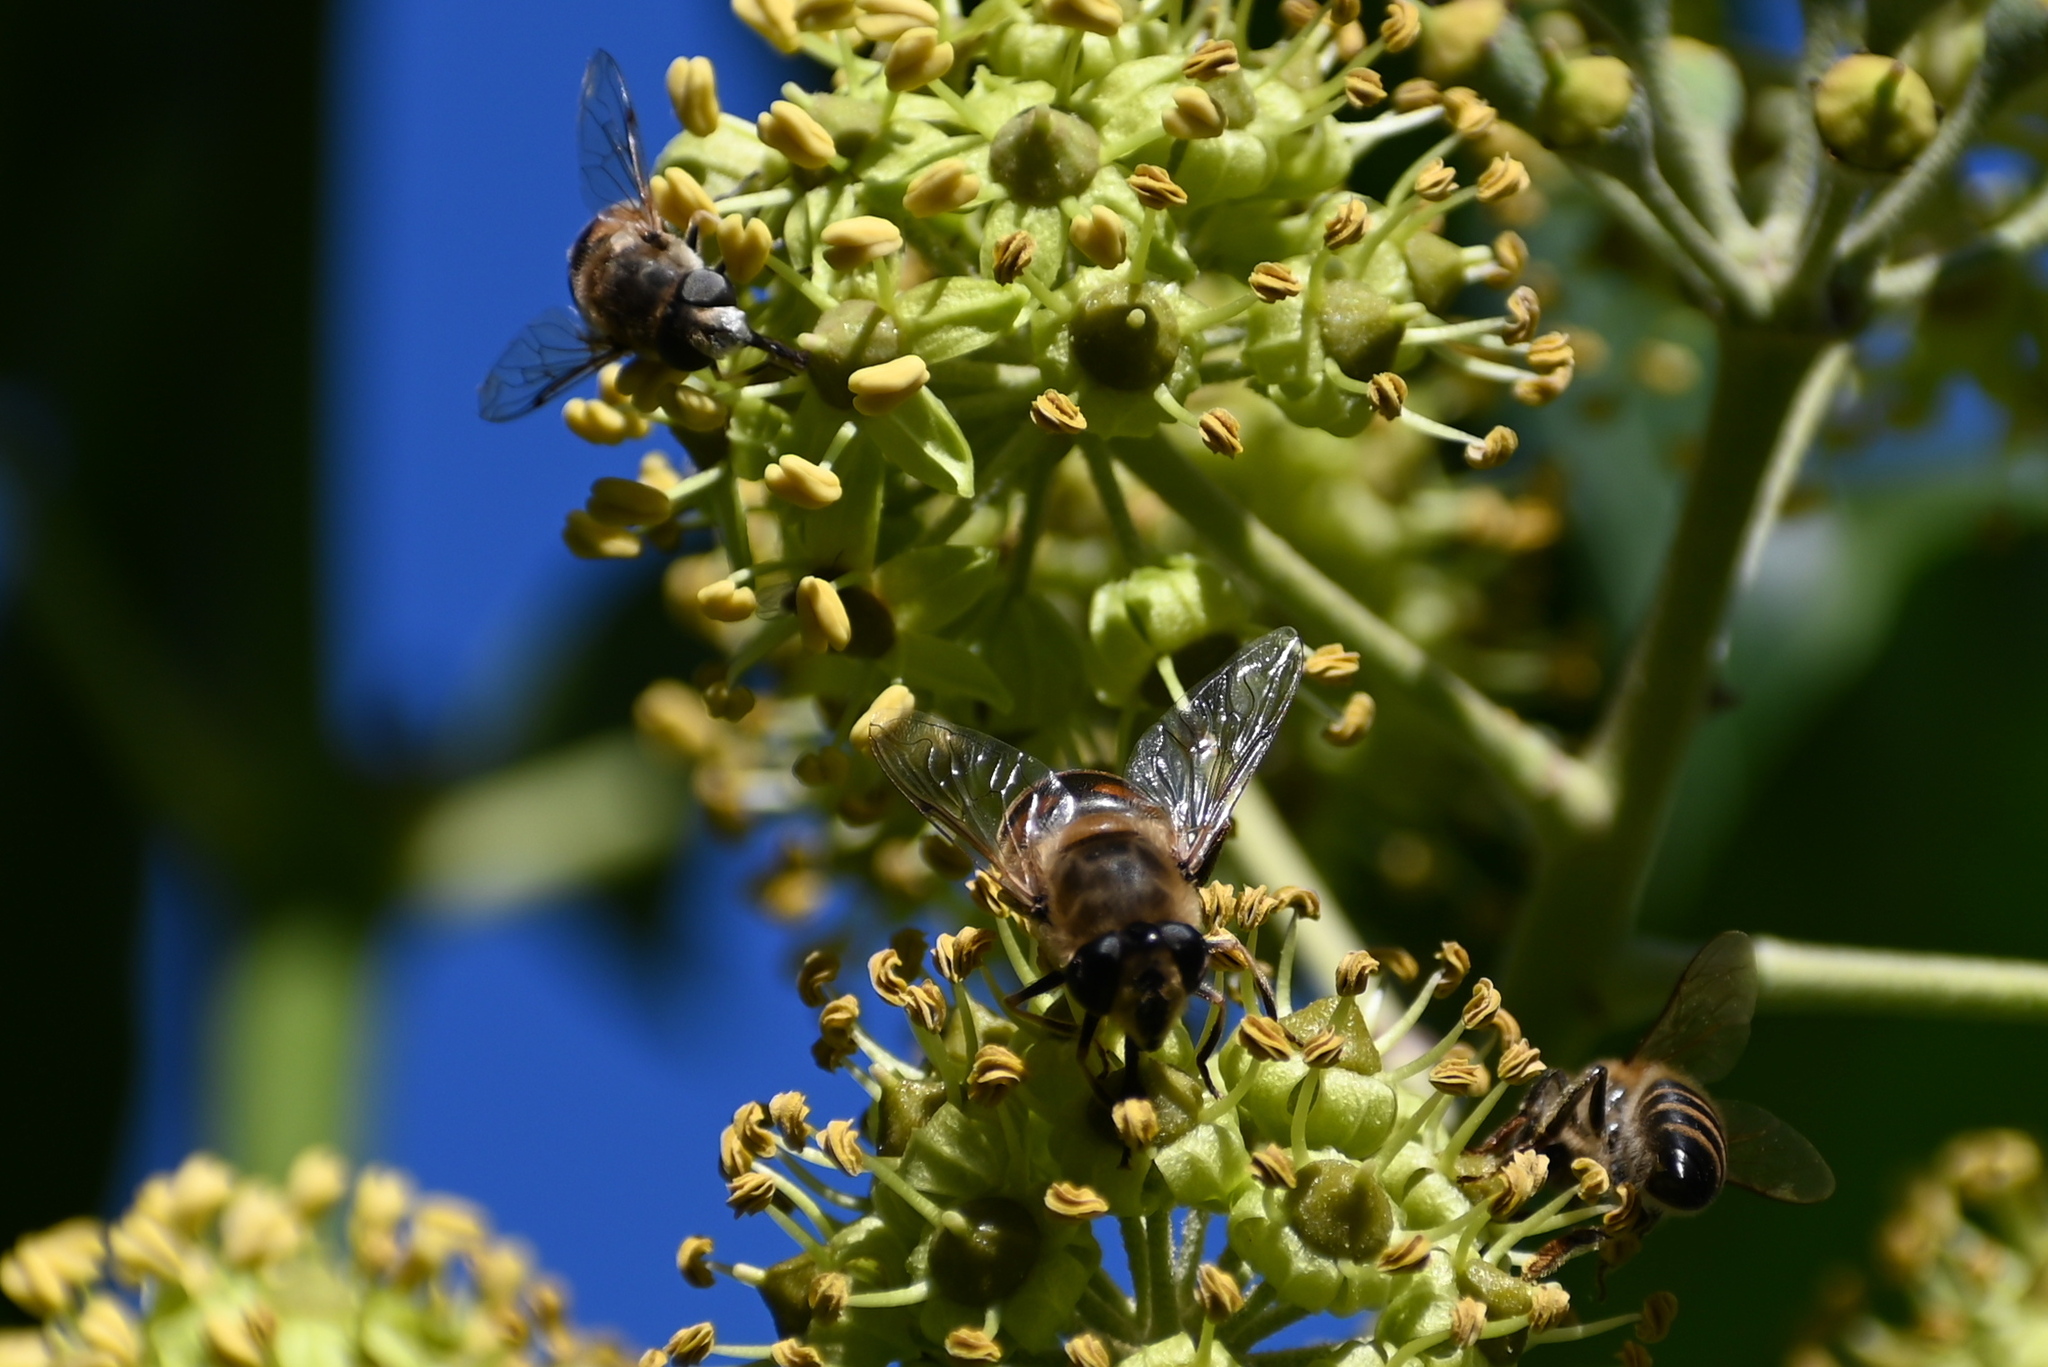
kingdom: Animalia
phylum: Arthropoda
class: Insecta
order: Diptera
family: Syrphidae
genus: Eristalis
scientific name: Eristalis tenax
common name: Drone fly
